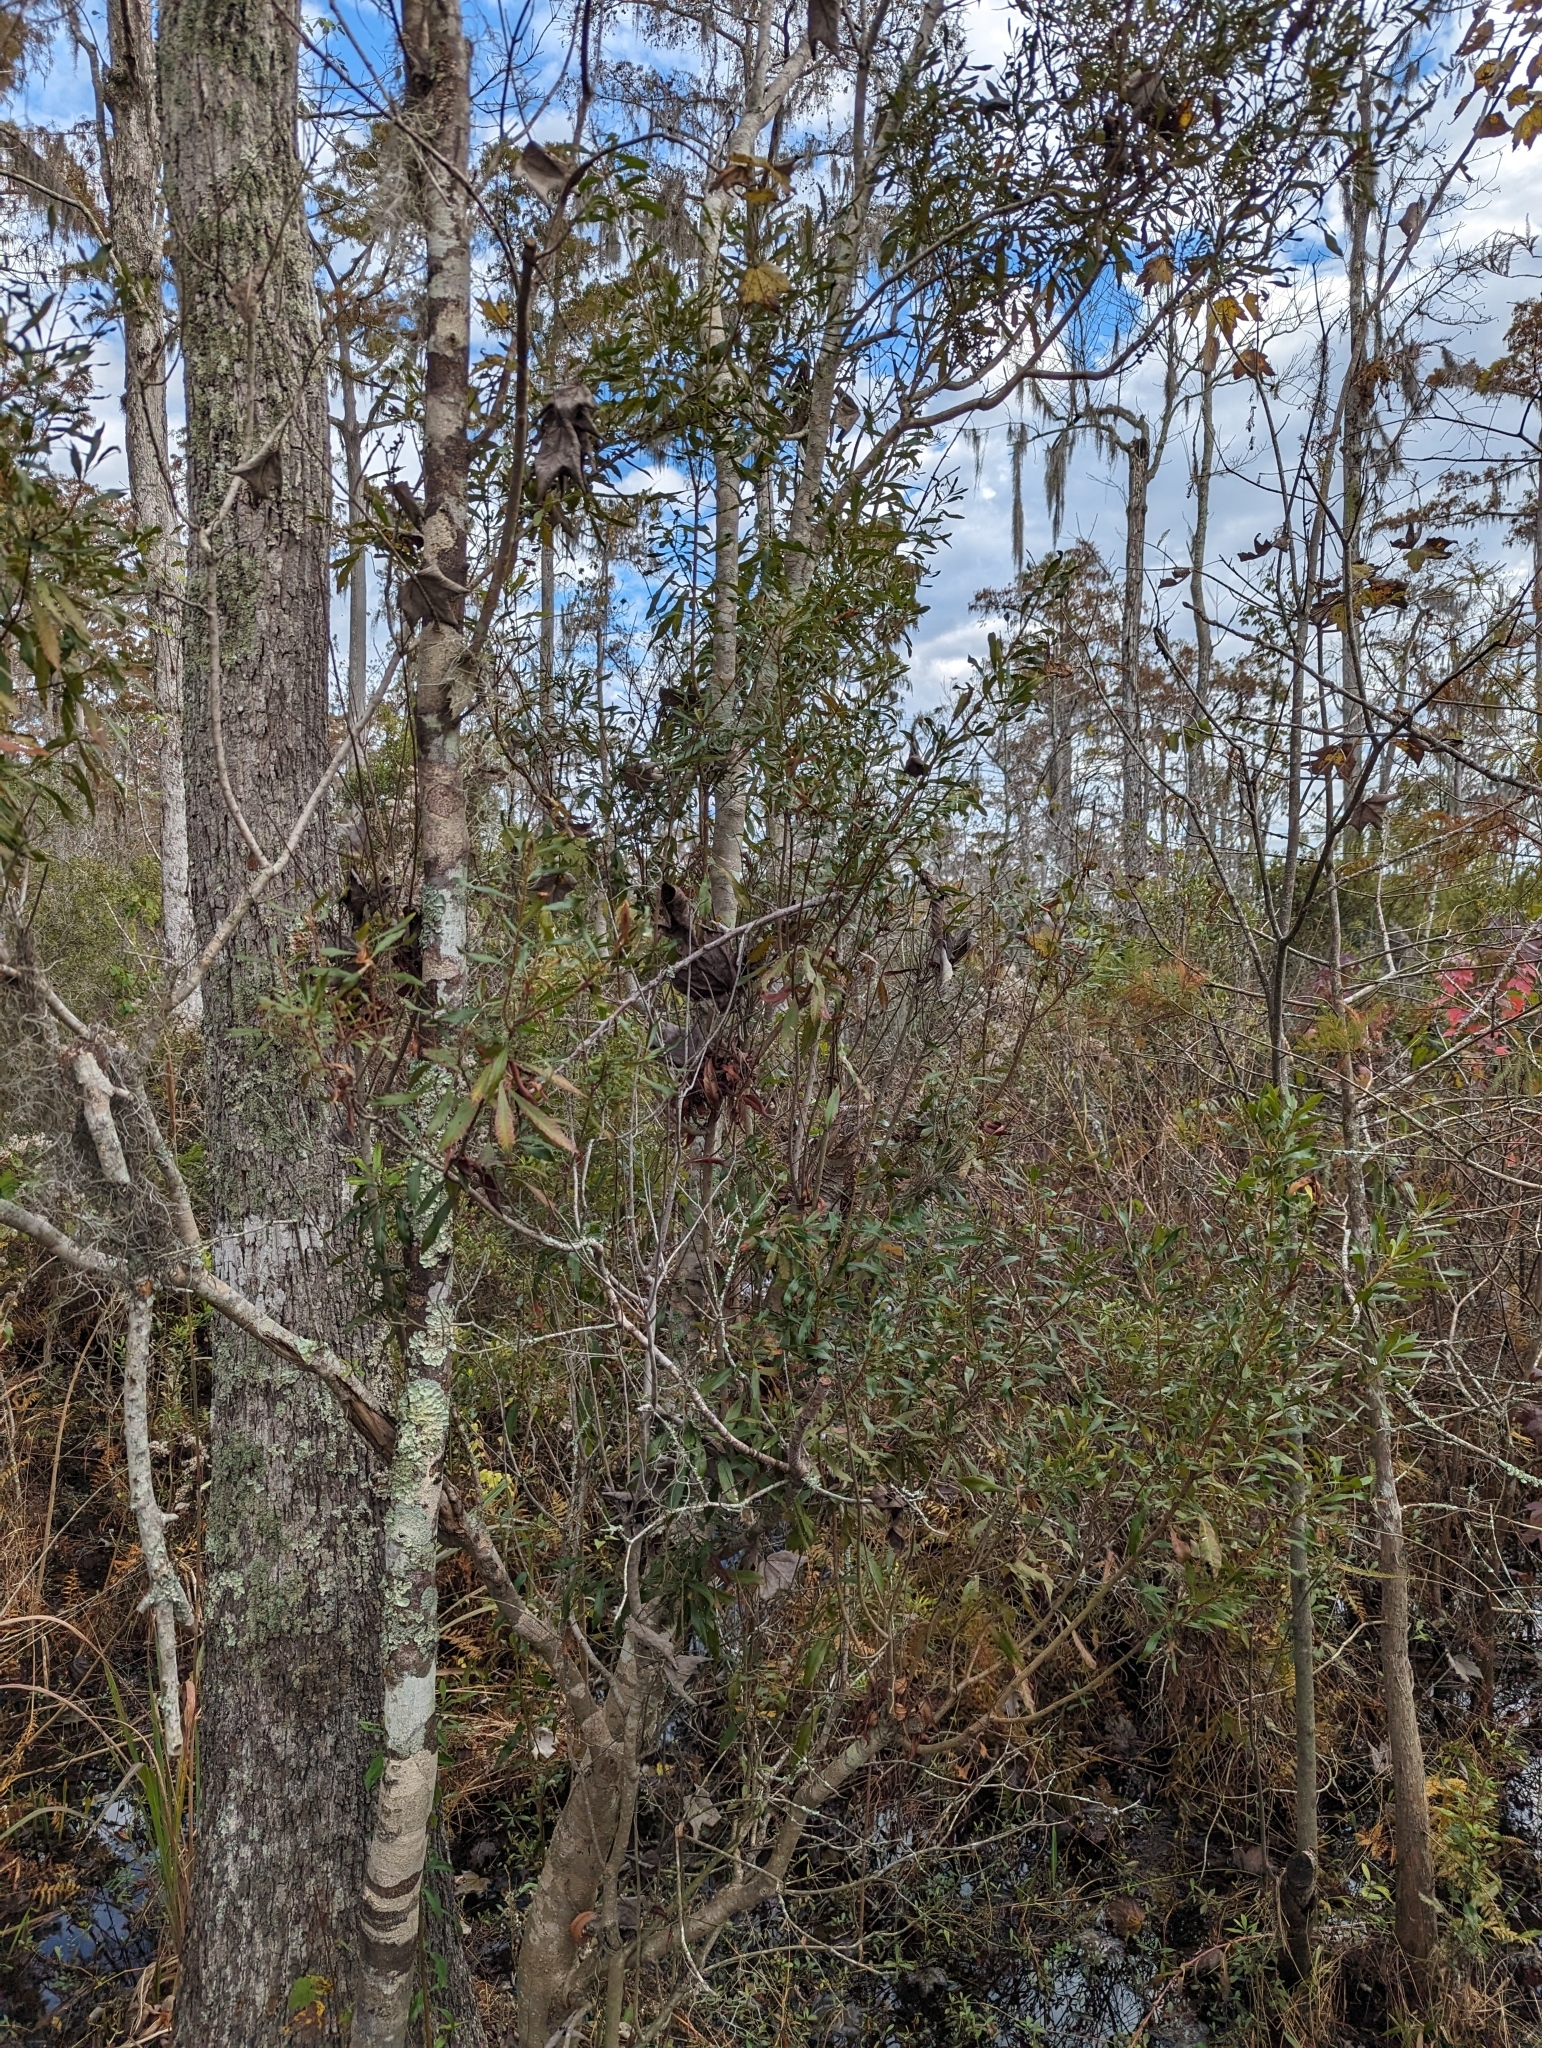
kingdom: Plantae
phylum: Tracheophyta
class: Magnoliopsida
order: Gentianales
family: Rubiaceae
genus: Cephalanthus
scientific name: Cephalanthus occidentalis
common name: Button-willow
